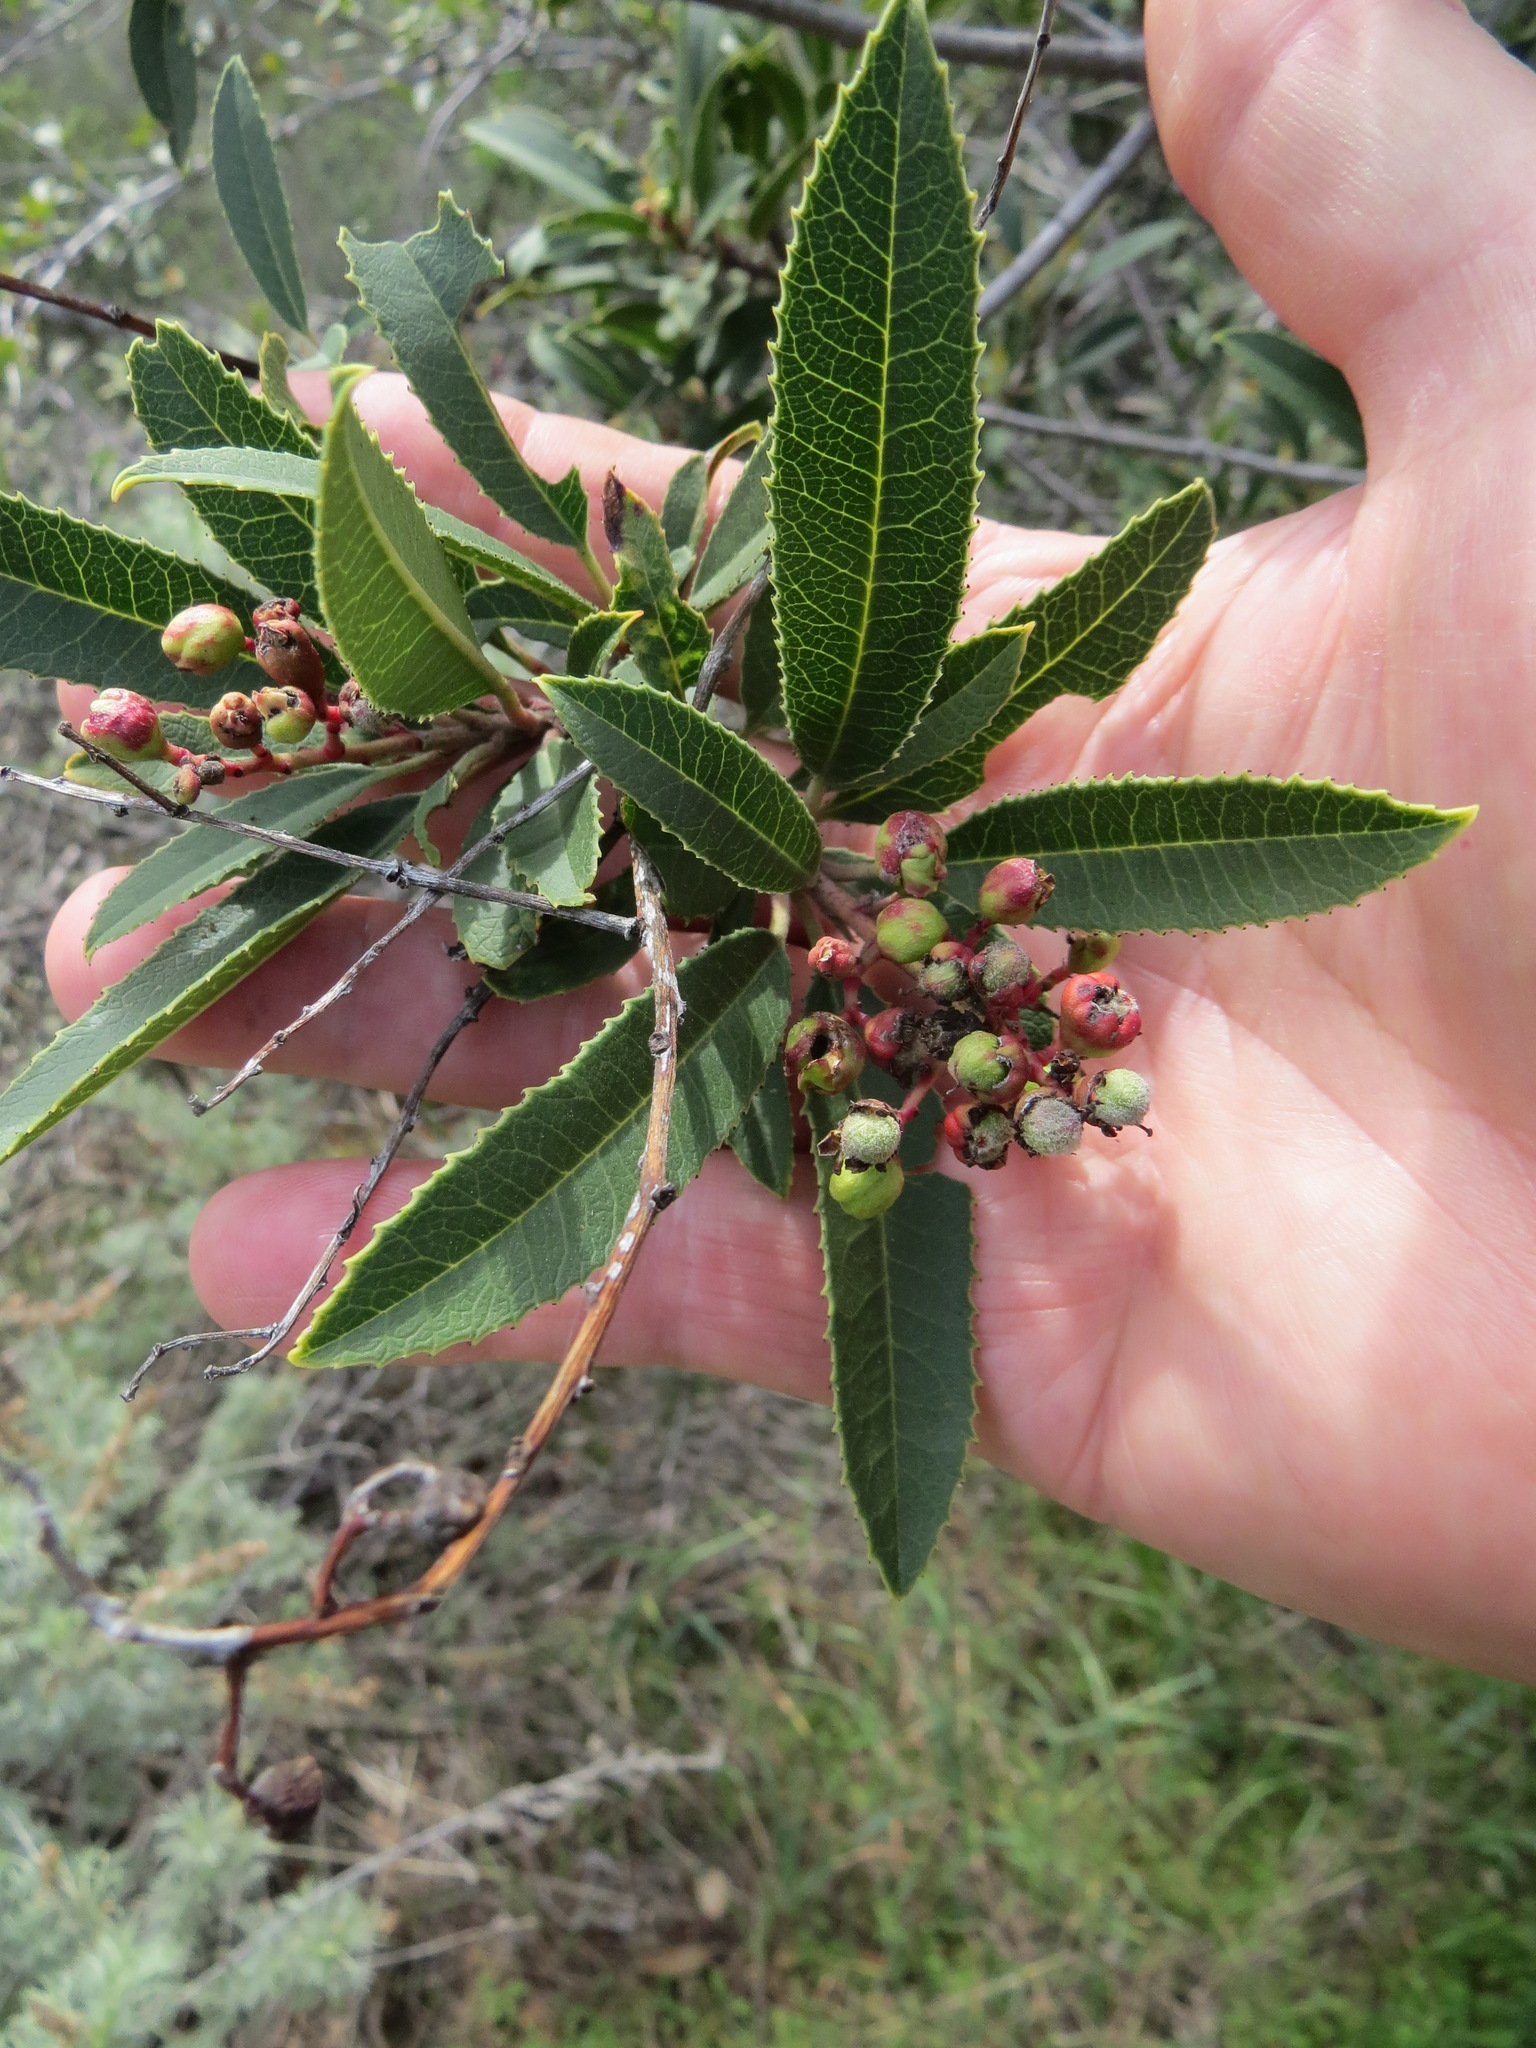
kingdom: Animalia
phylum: Arthropoda
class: Insecta
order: Diptera
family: Cecidomyiidae
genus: Asphondylia
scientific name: Asphondylia photiniae
